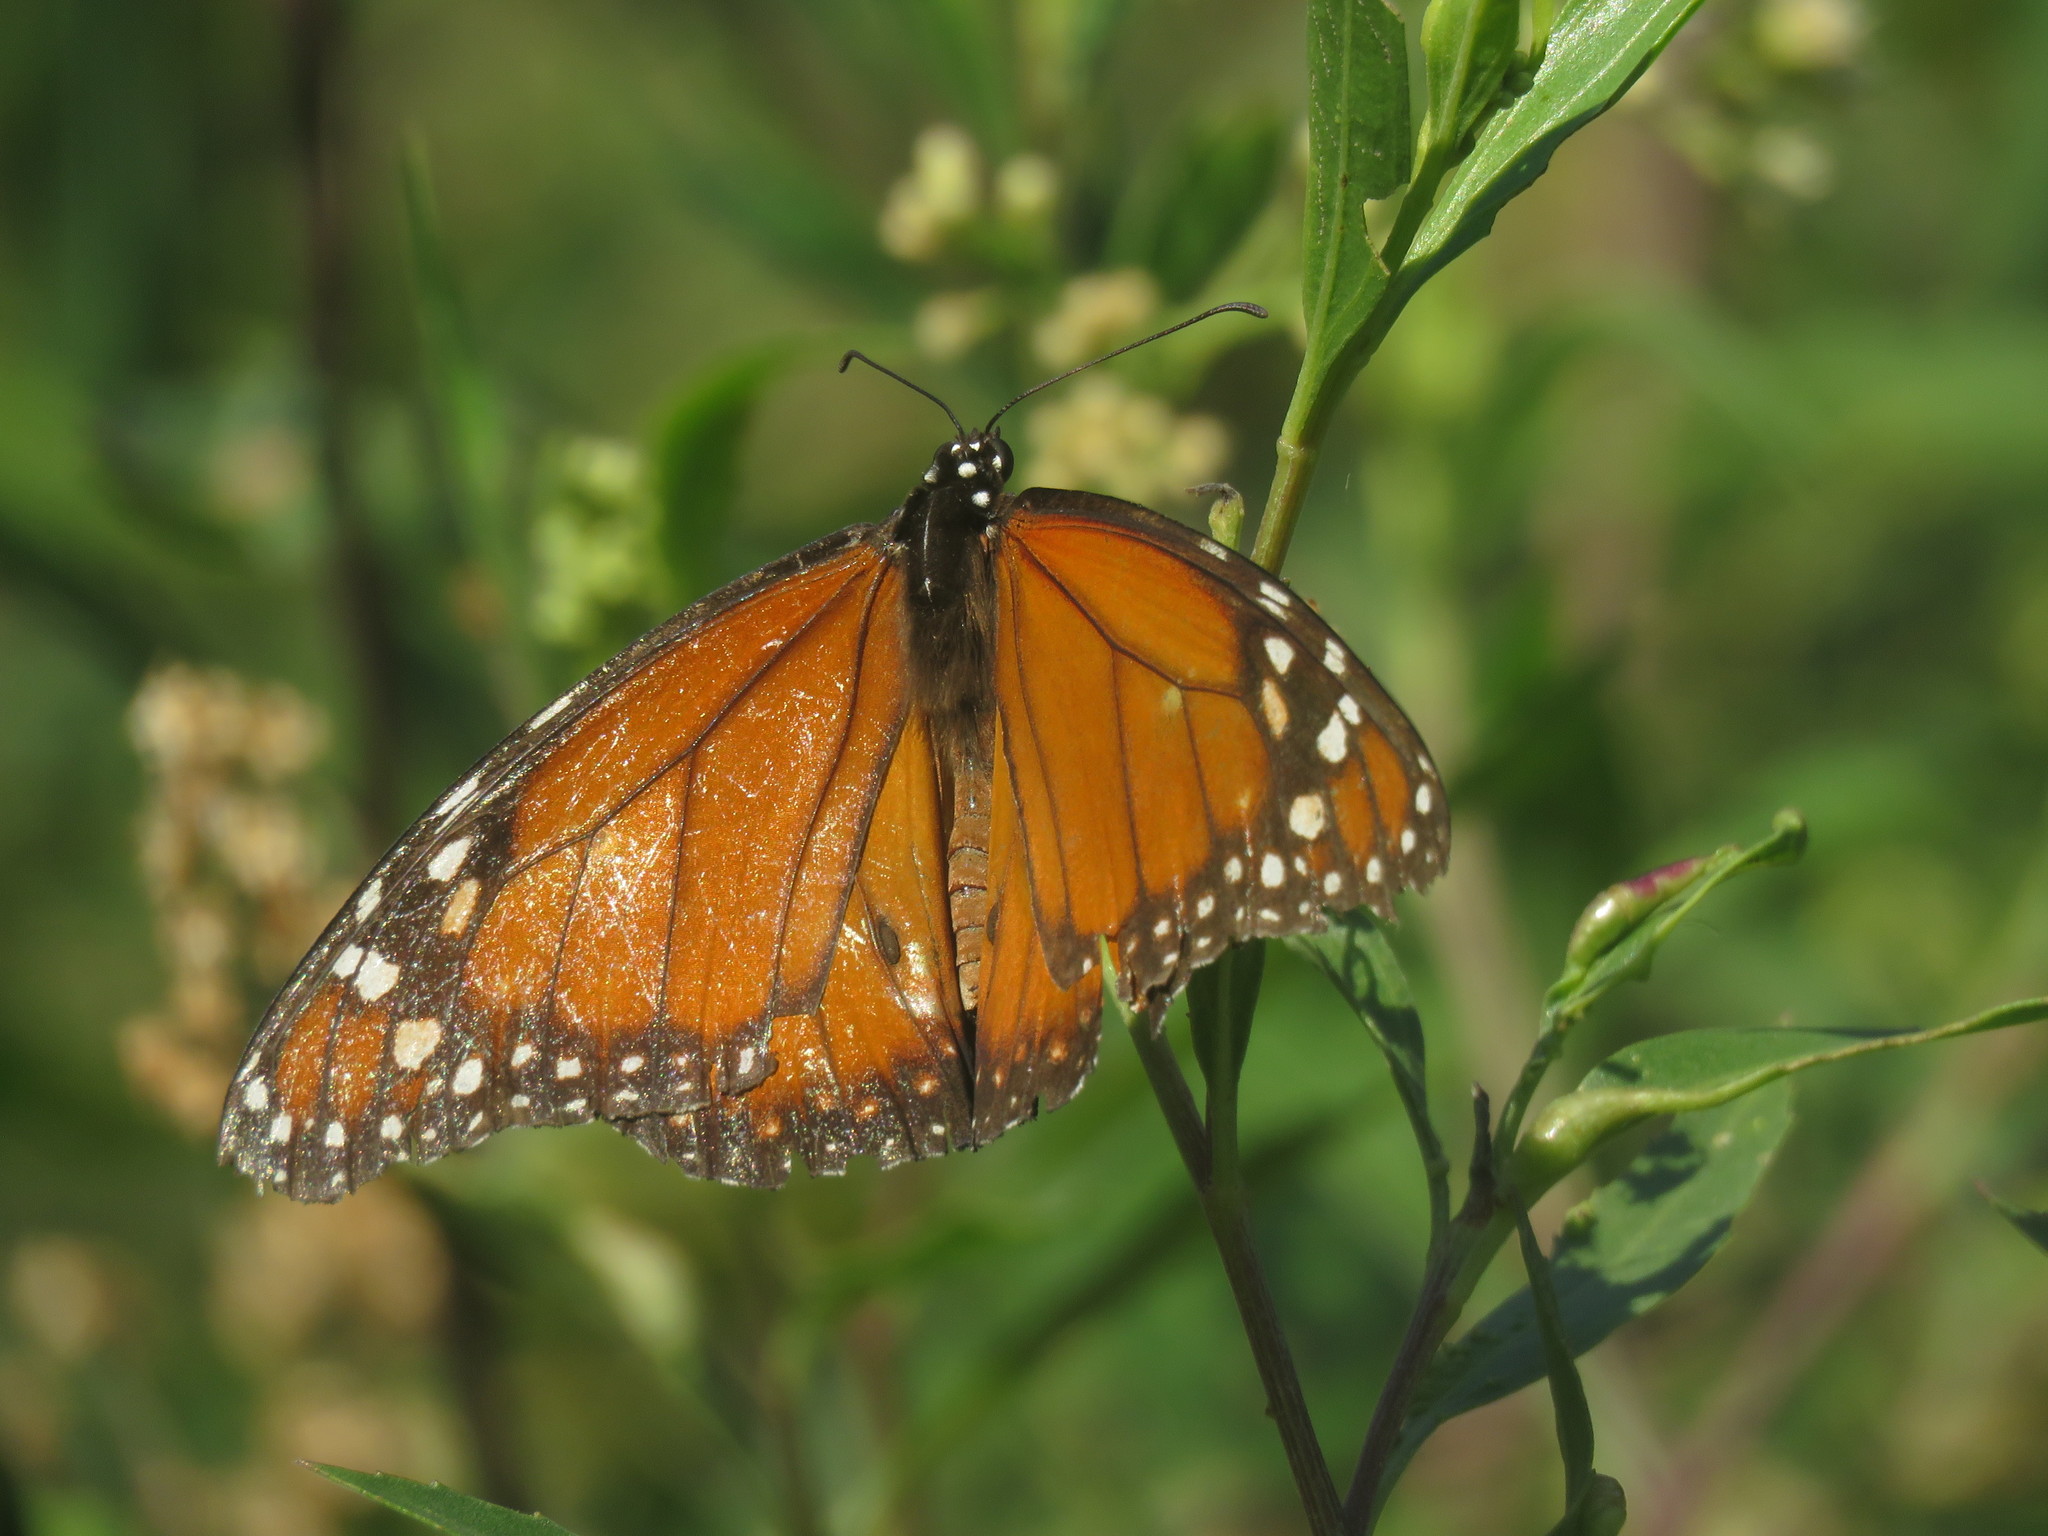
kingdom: Animalia
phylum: Arthropoda
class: Insecta
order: Lepidoptera
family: Nymphalidae
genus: Danaus
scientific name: Danaus erippus
